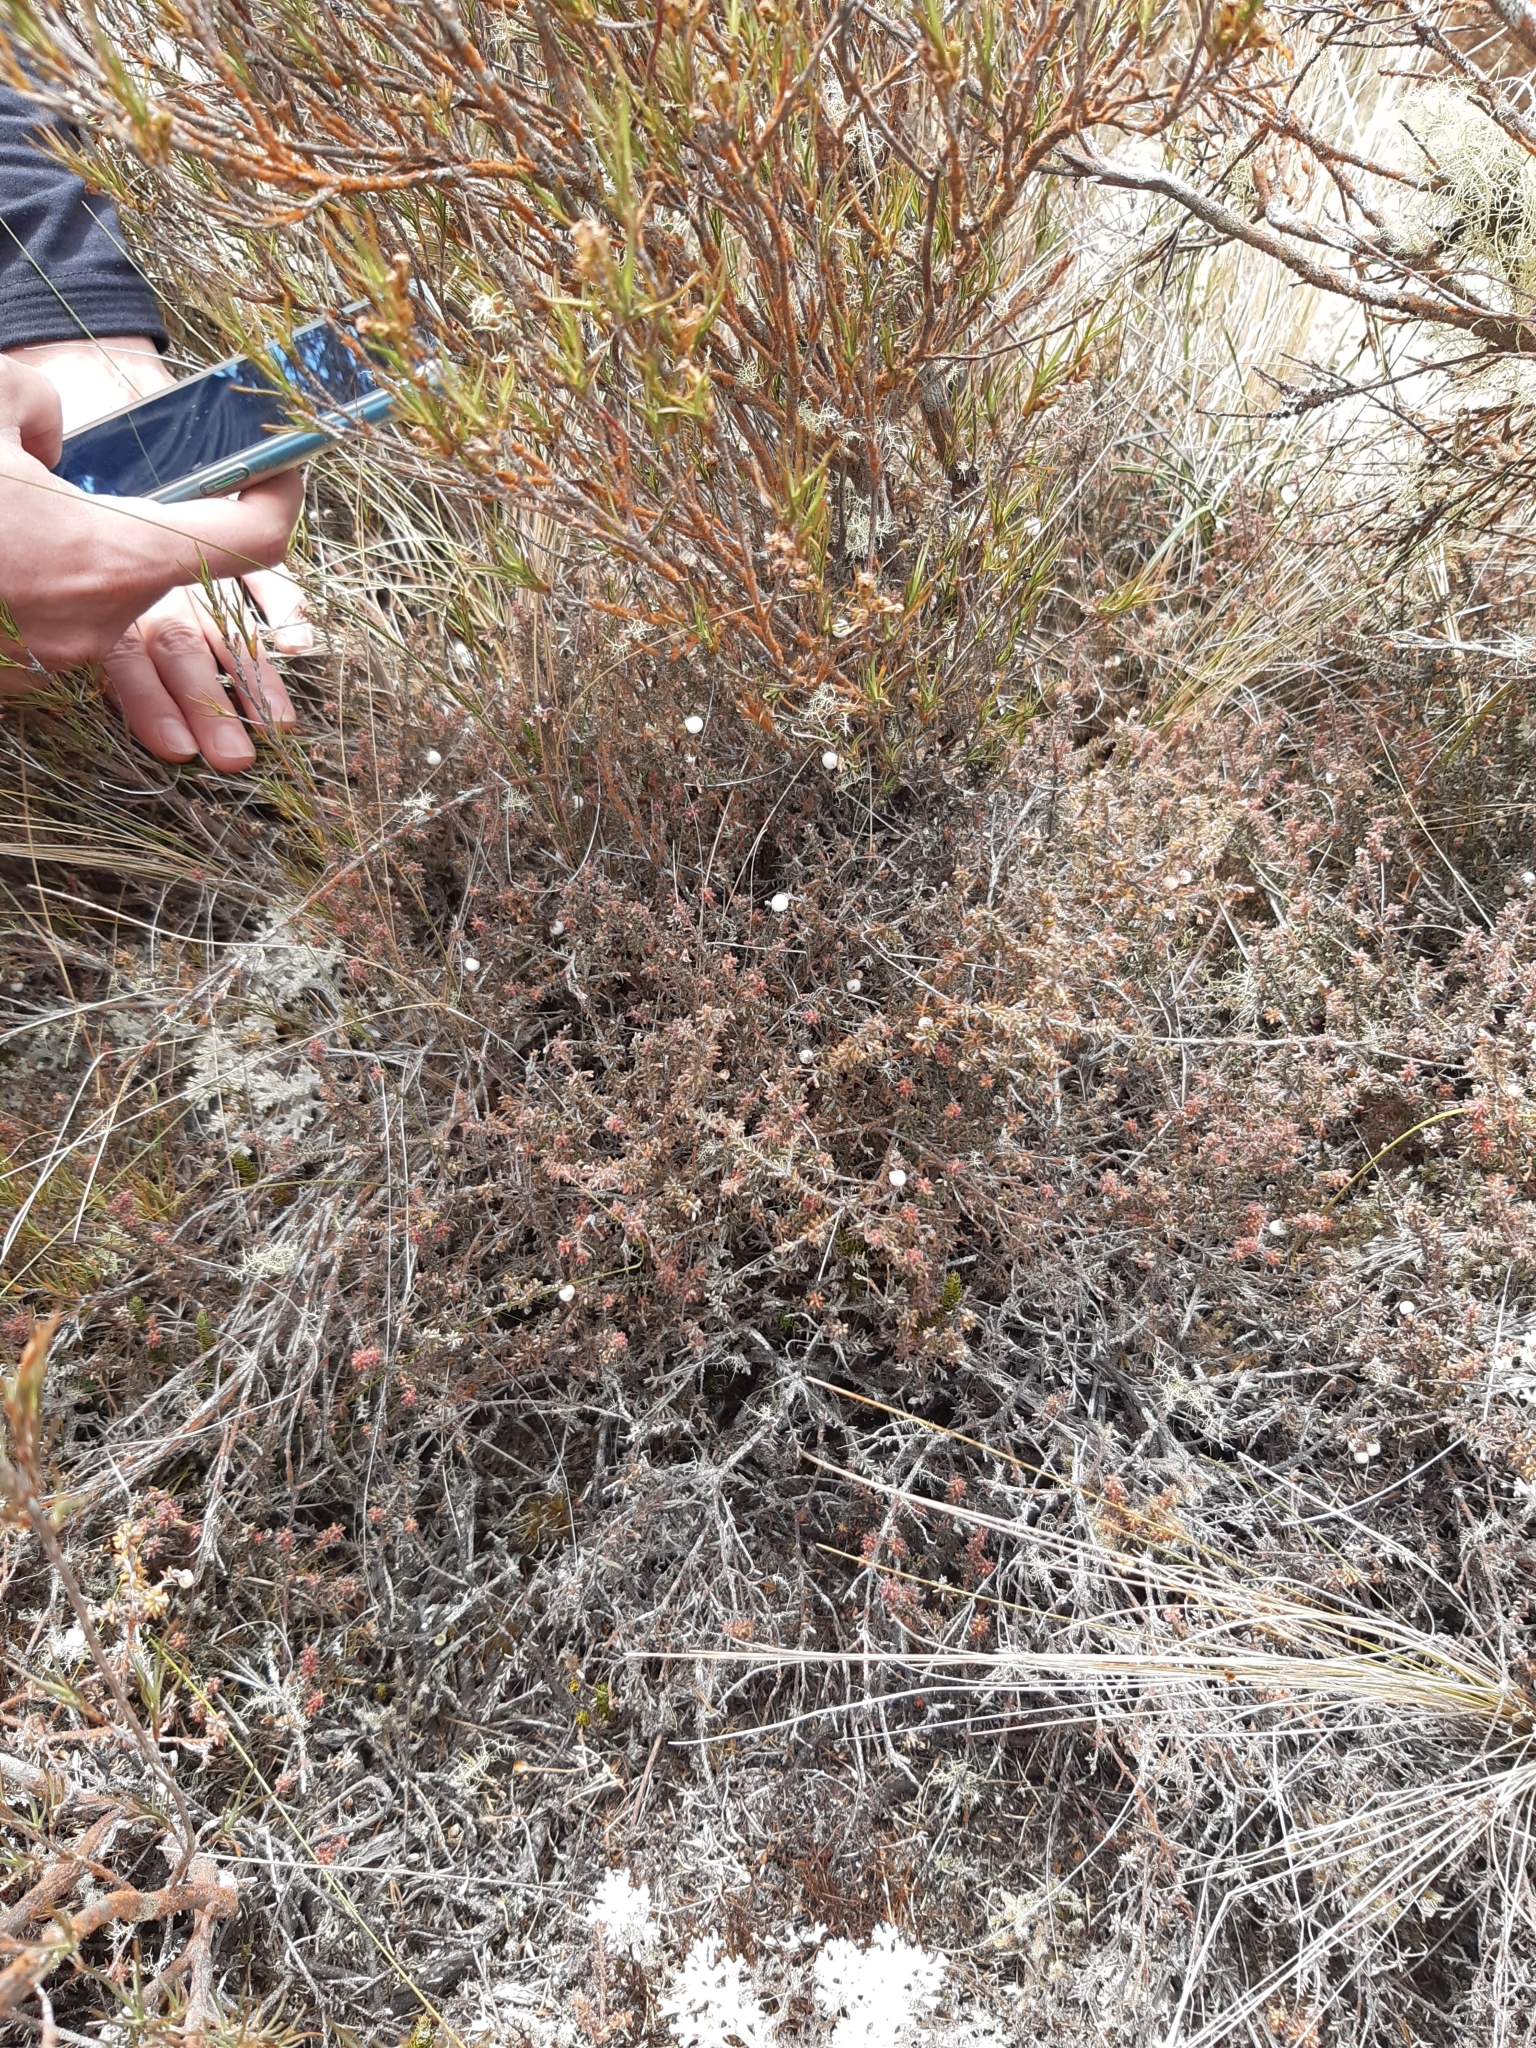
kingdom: Plantae
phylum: Tracheophyta
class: Magnoliopsida
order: Ericales
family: Ericaceae
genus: Acrothamnus
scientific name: Acrothamnus colensoi
